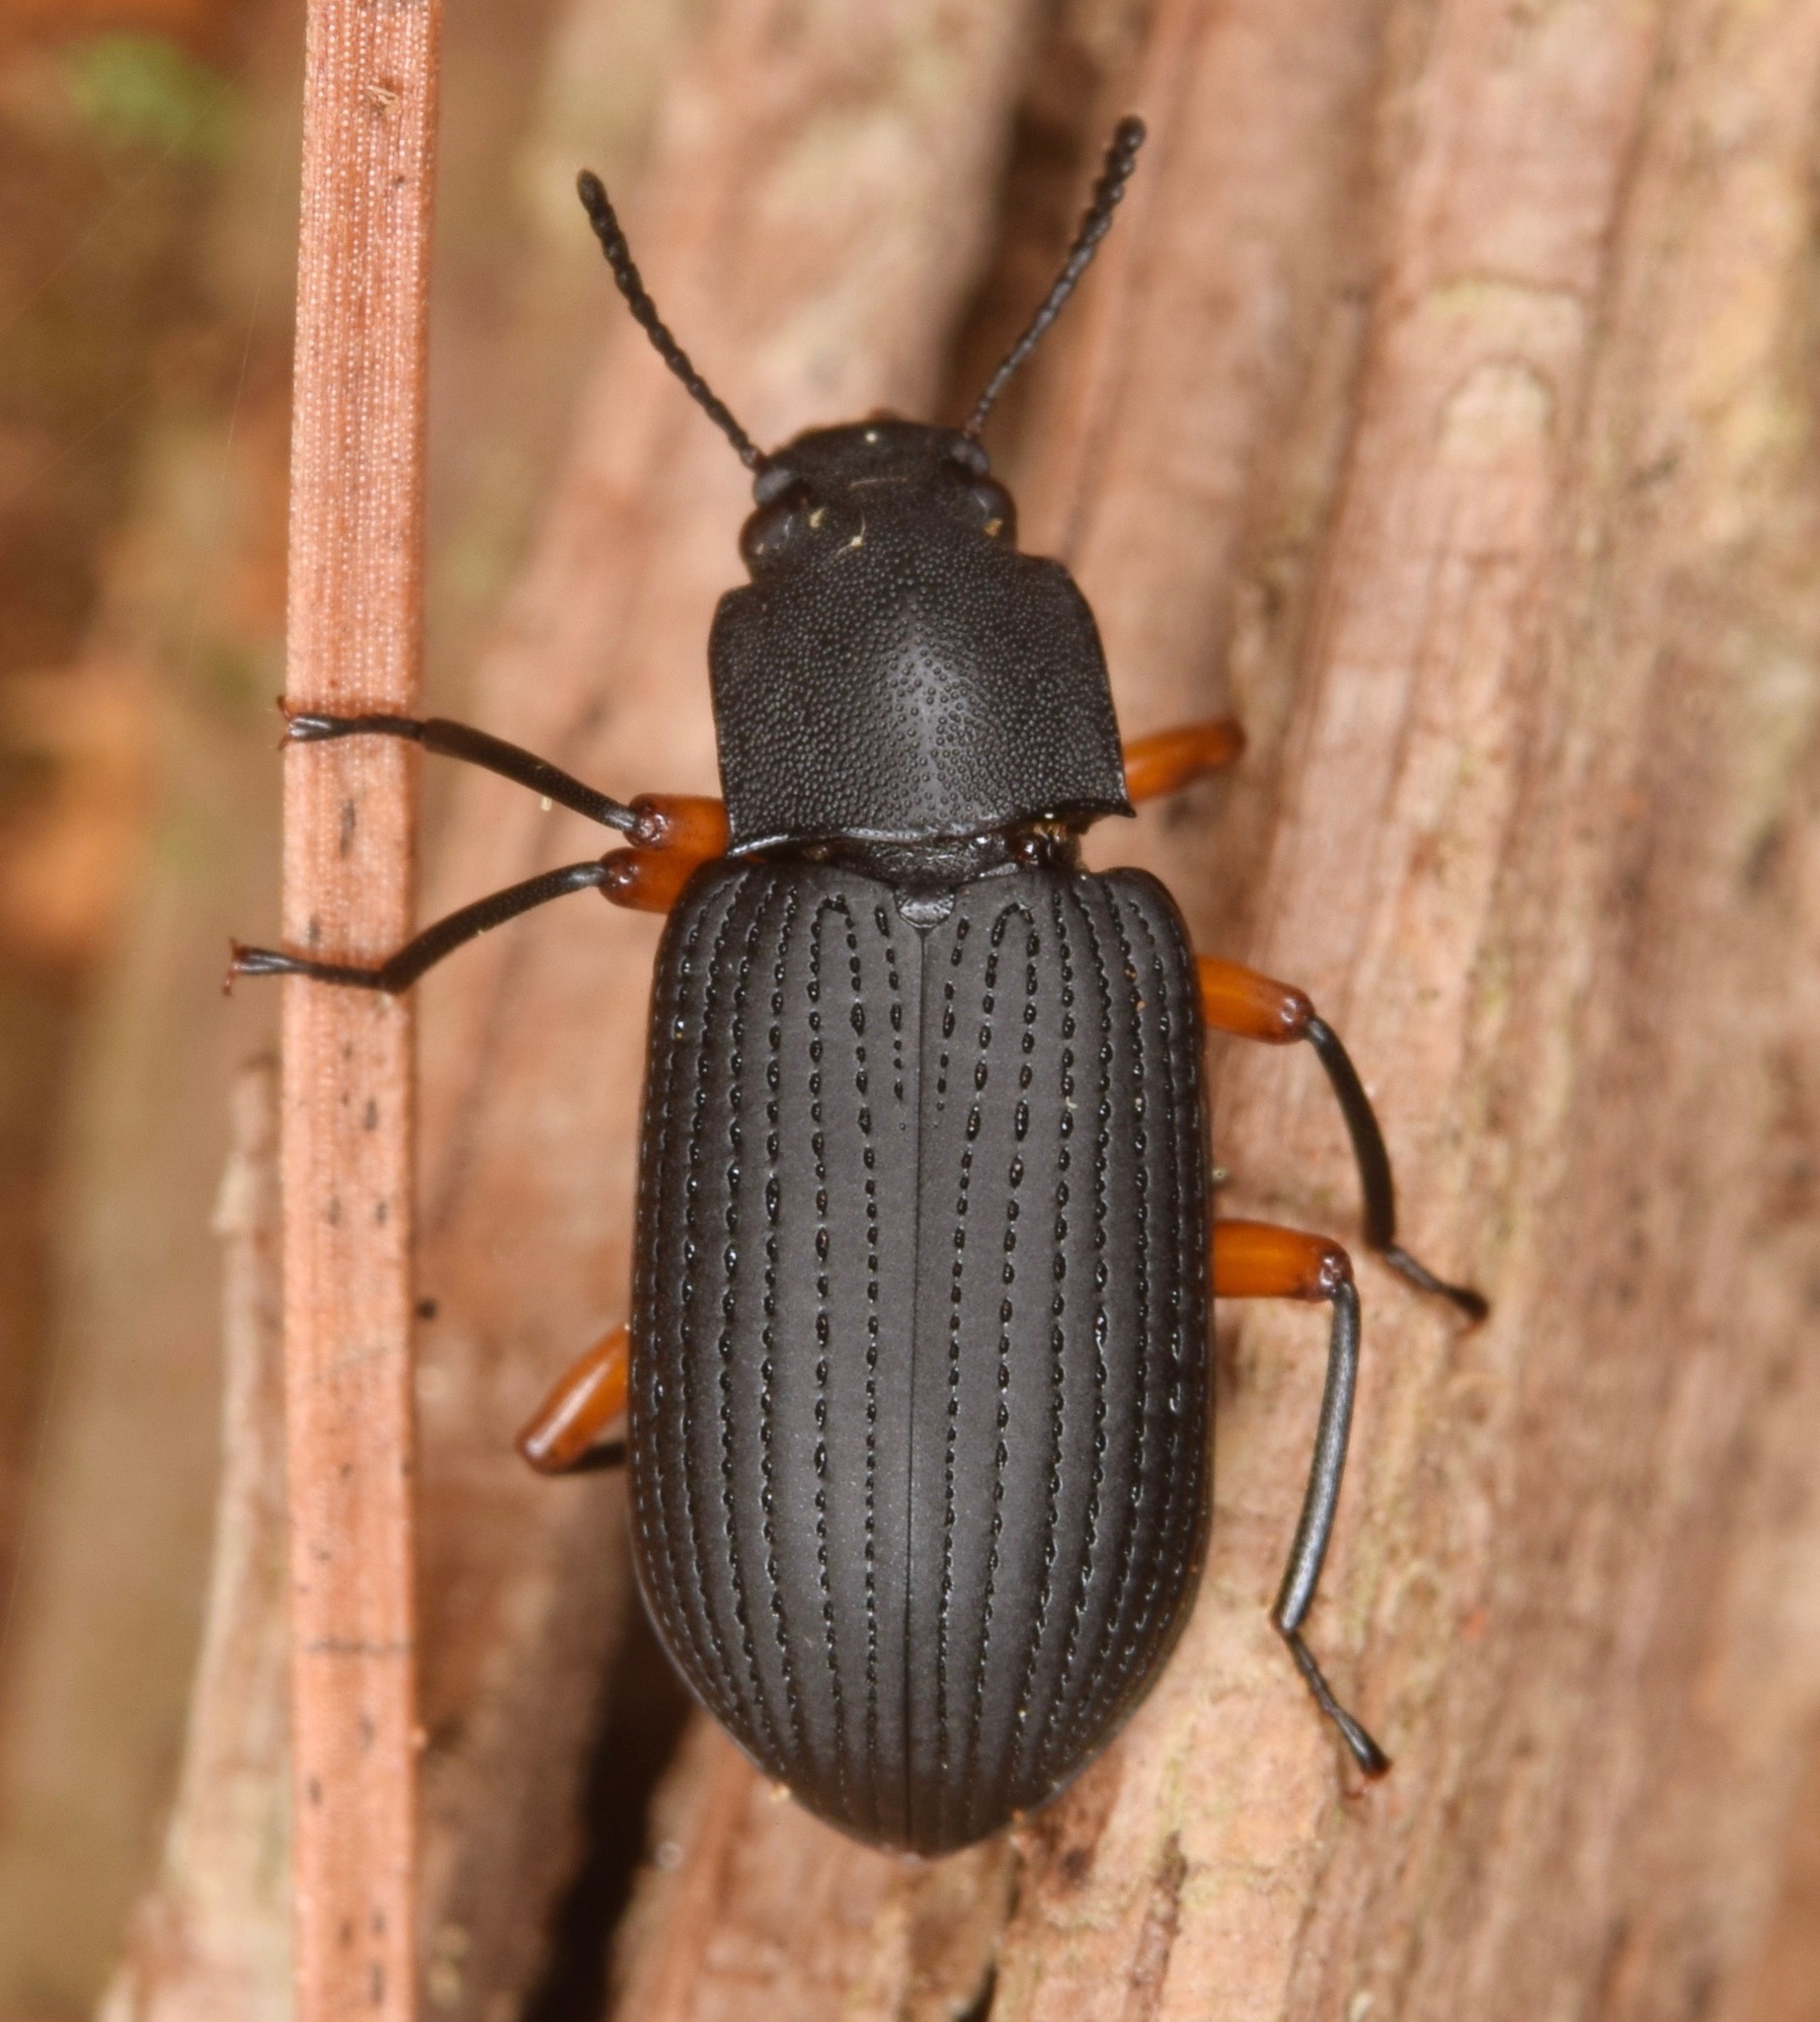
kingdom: Animalia
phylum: Arthropoda
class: Insecta
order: Coleoptera
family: Tenebrionidae
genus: Haplandrus
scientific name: Haplandrus fulvipes
